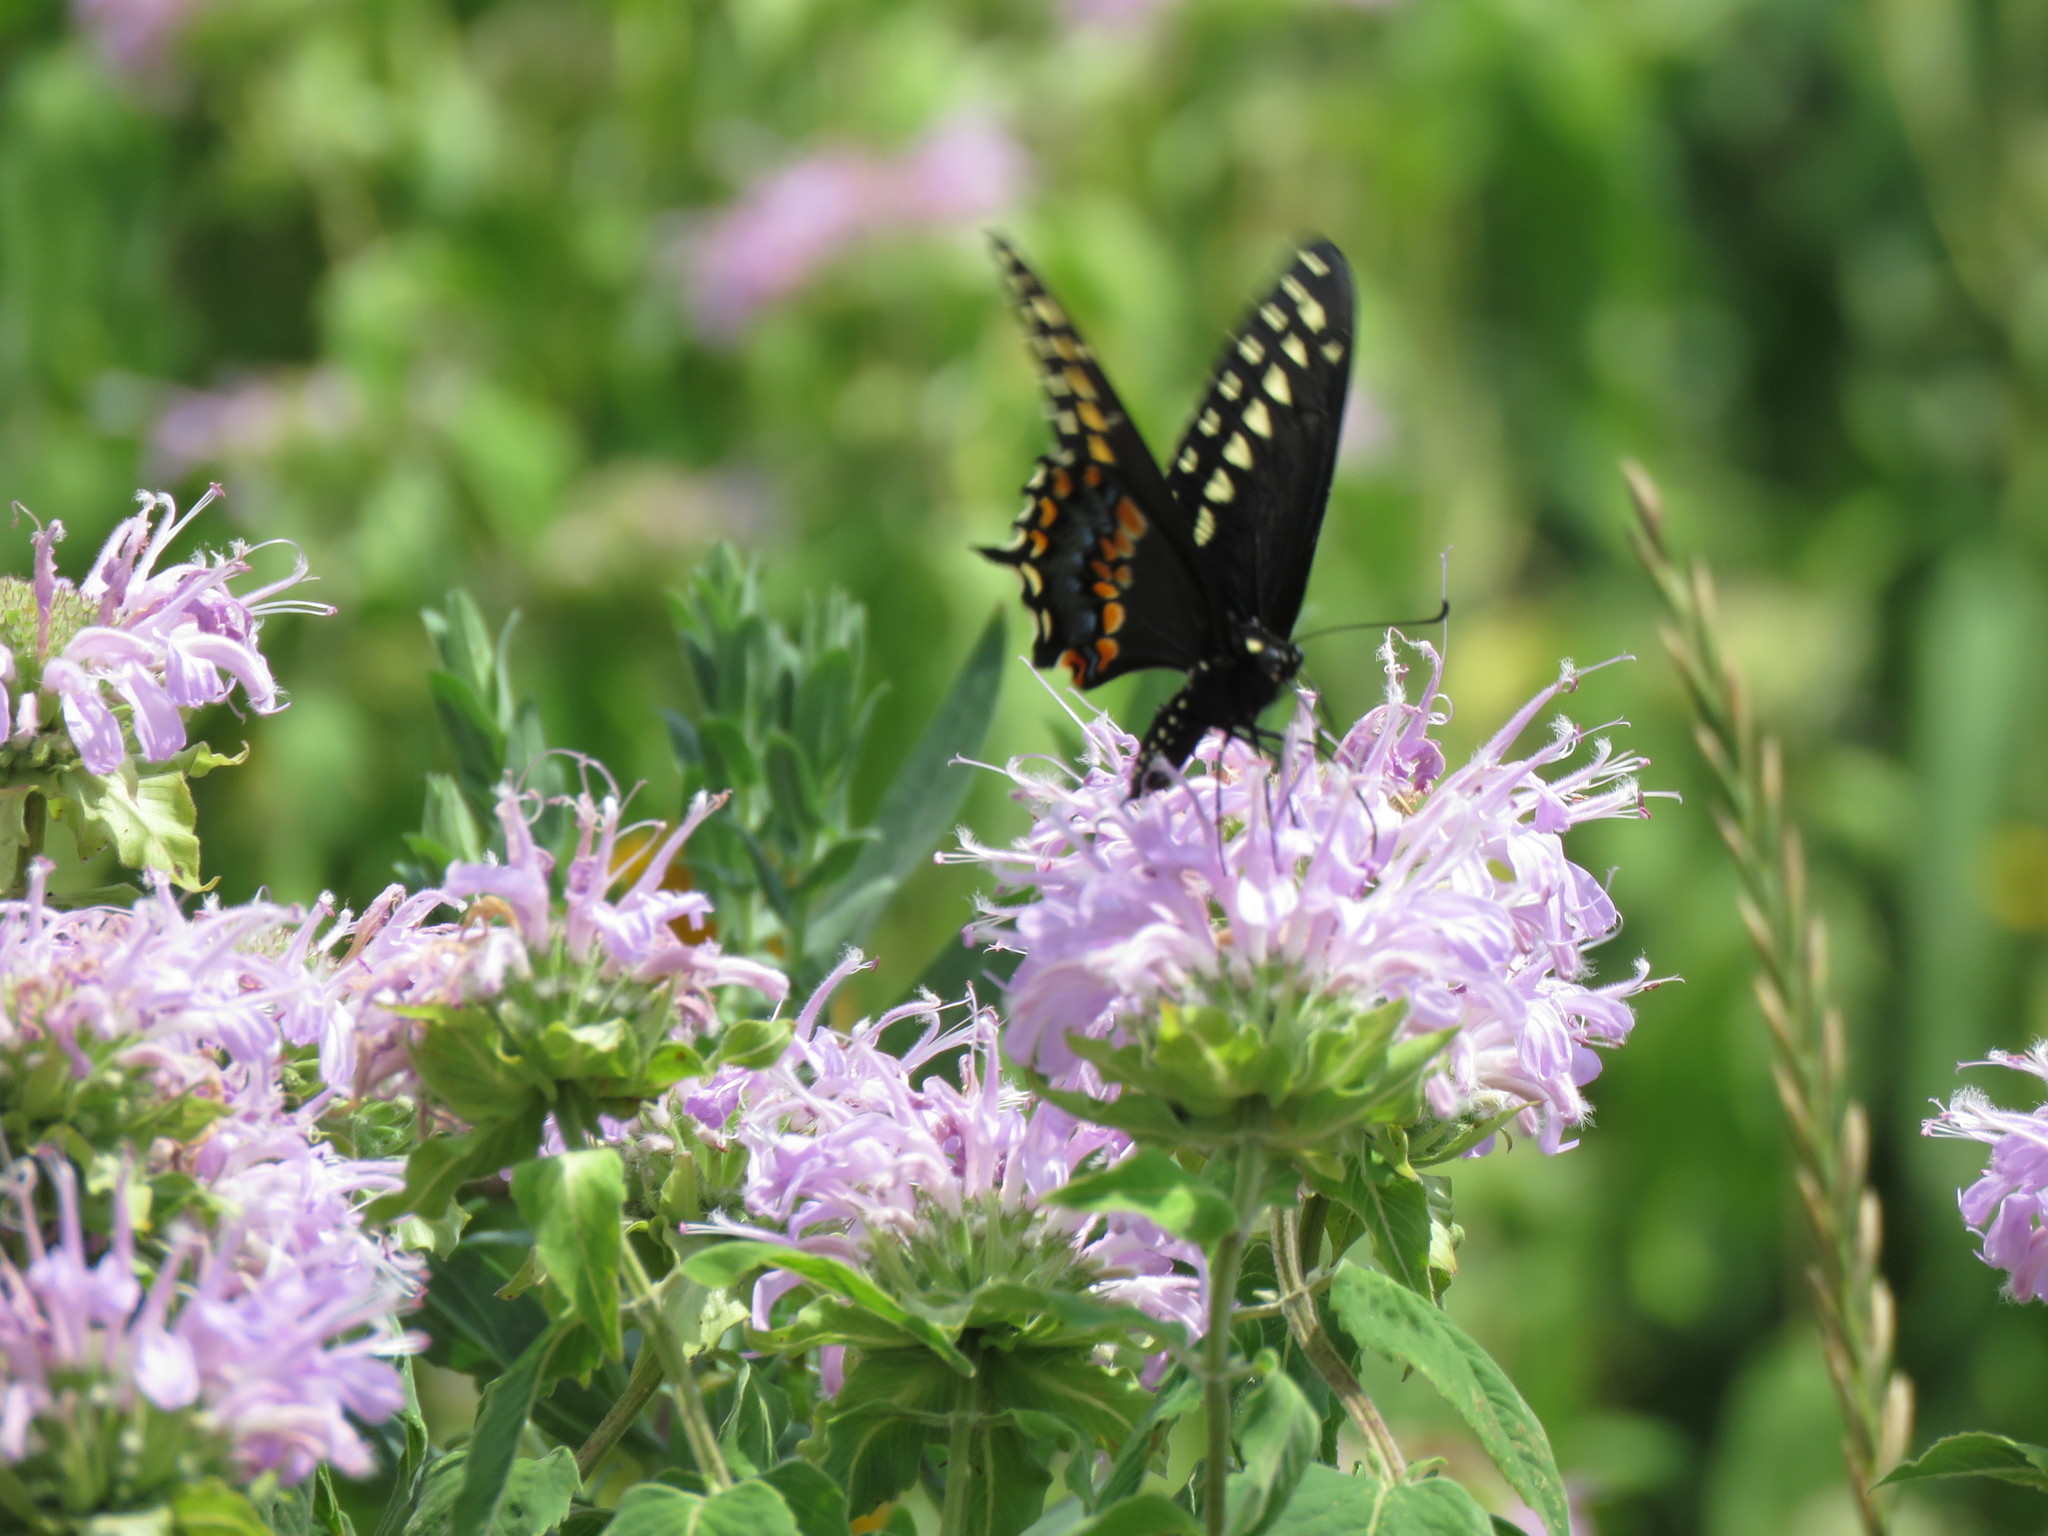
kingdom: Animalia
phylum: Arthropoda
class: Insecta
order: Lepidoptera
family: Papilionidae
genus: Papilio
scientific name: Papilio polyxenes
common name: Black swallowtail
